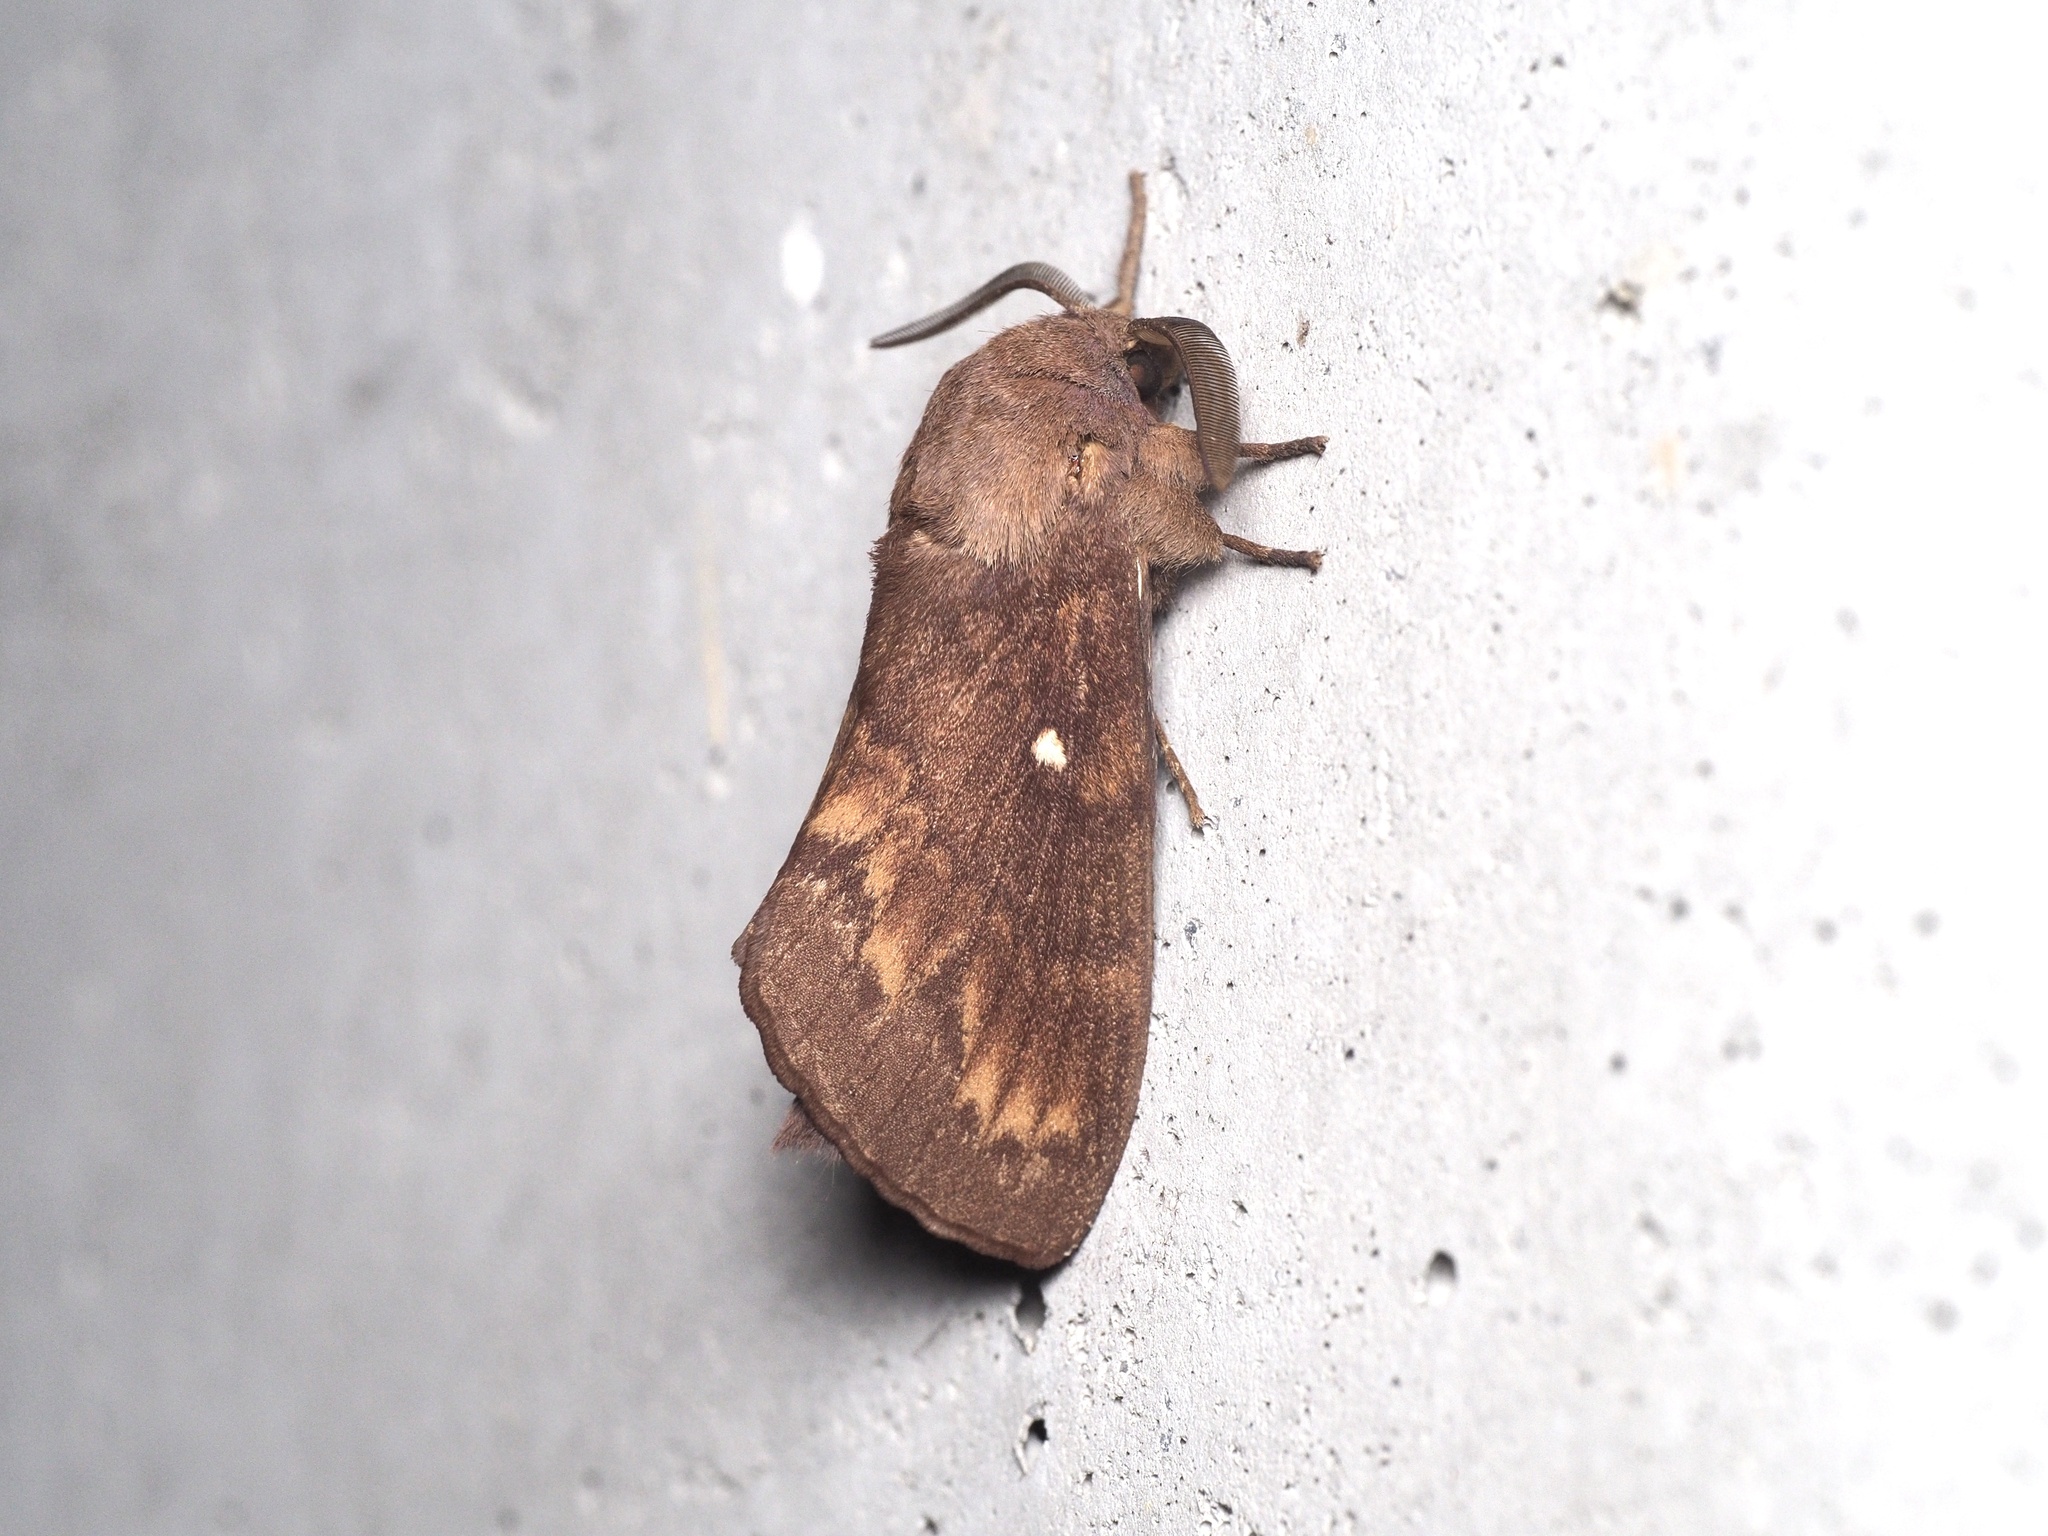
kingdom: Animalia
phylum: Arthropoda
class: Insecta
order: Lepidoptera
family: Lasiocampidae
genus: Dendrolimus
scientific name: Dendrolimus pini
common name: Pine-tree lappet
